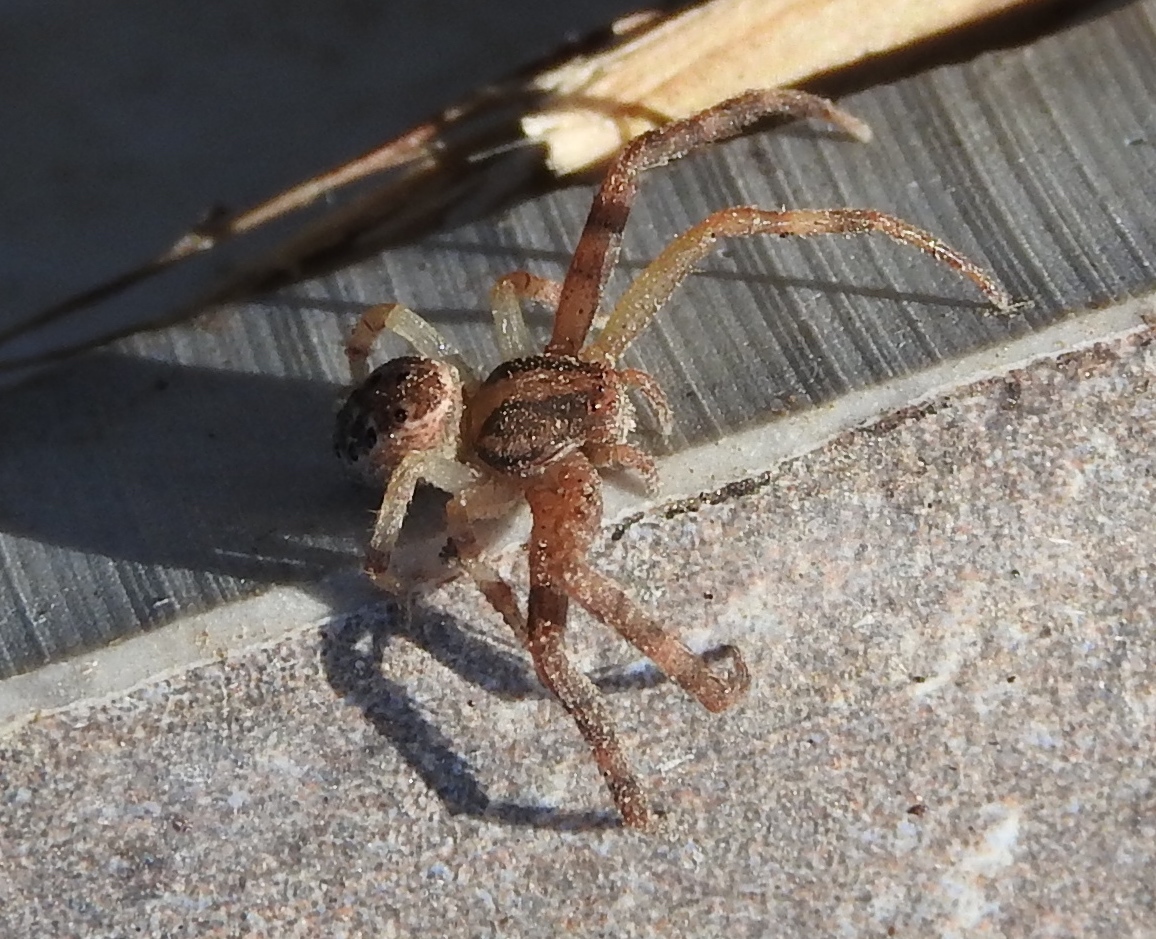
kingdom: Animalia
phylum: Arthropoda
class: Arachnida
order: Araneae
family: Thomisidae
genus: Isaloides
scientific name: Isaloides
